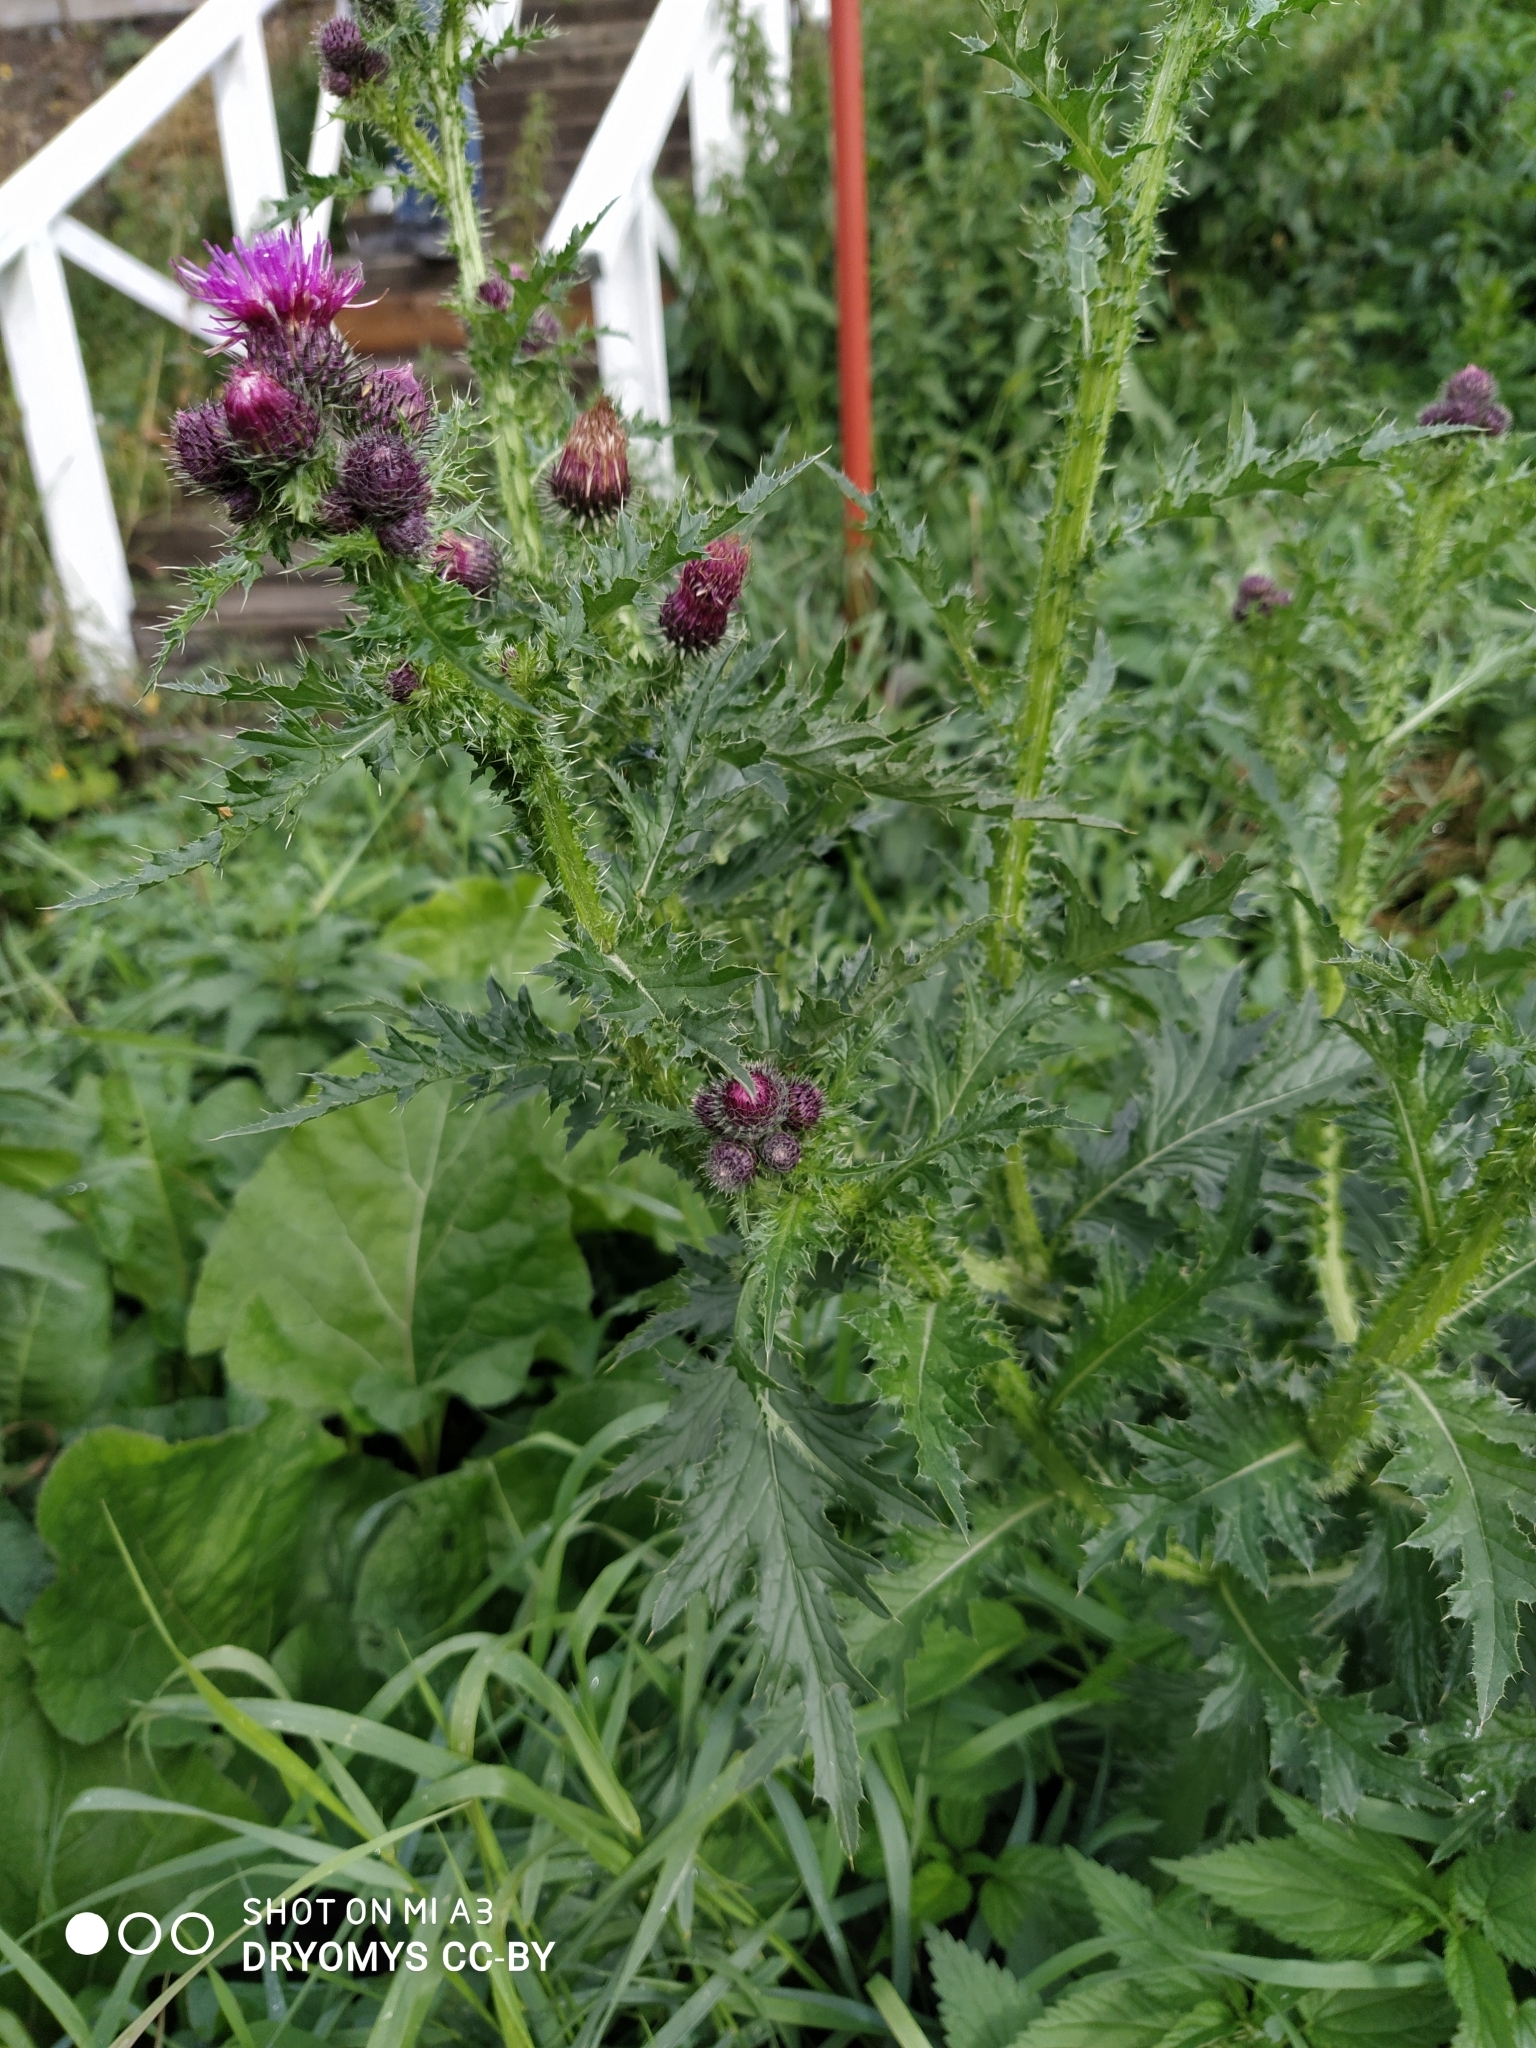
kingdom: Plantae
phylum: Tracheophyta
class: Magnoliopsida
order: Asterales
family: Asteraceae
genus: Carduus
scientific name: Carduus crispus
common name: Welted thistle
